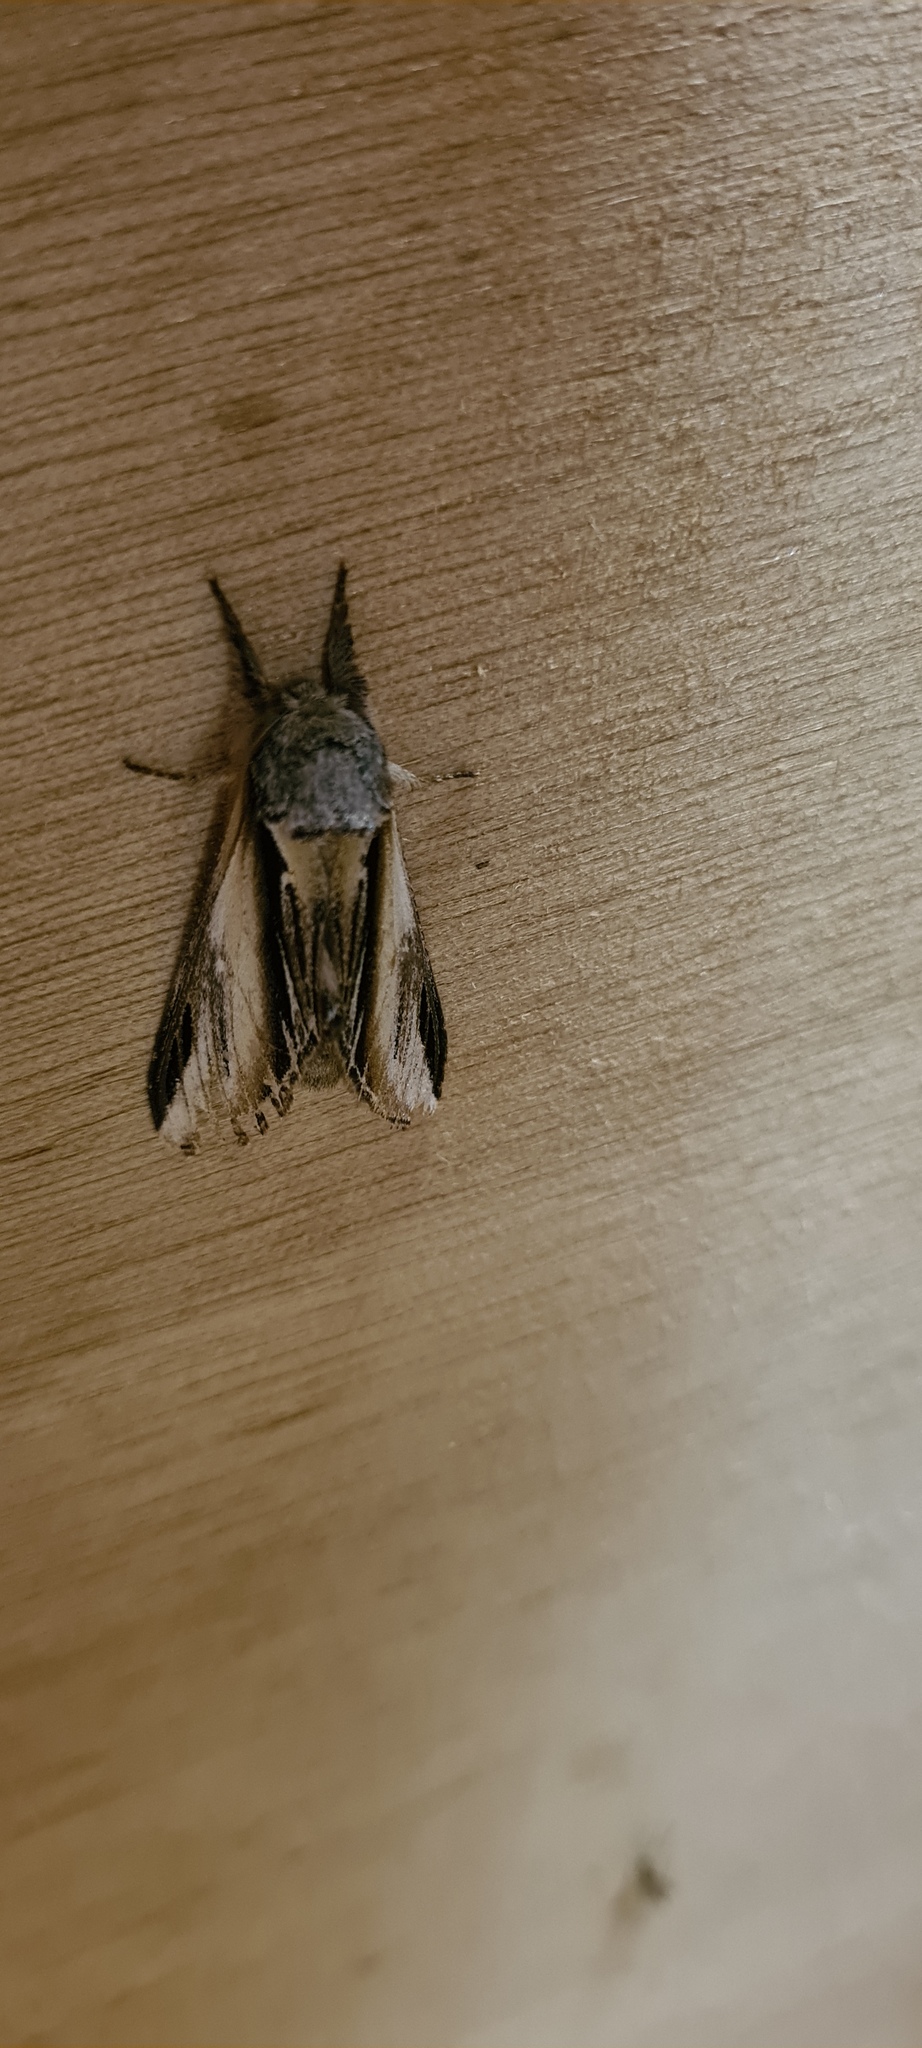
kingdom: Animalia
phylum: Arthropoda
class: Insecta
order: Lepidoptera
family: Notodontidae
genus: Pheosia
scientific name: Pheosia tremula
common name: Swallow prominent
